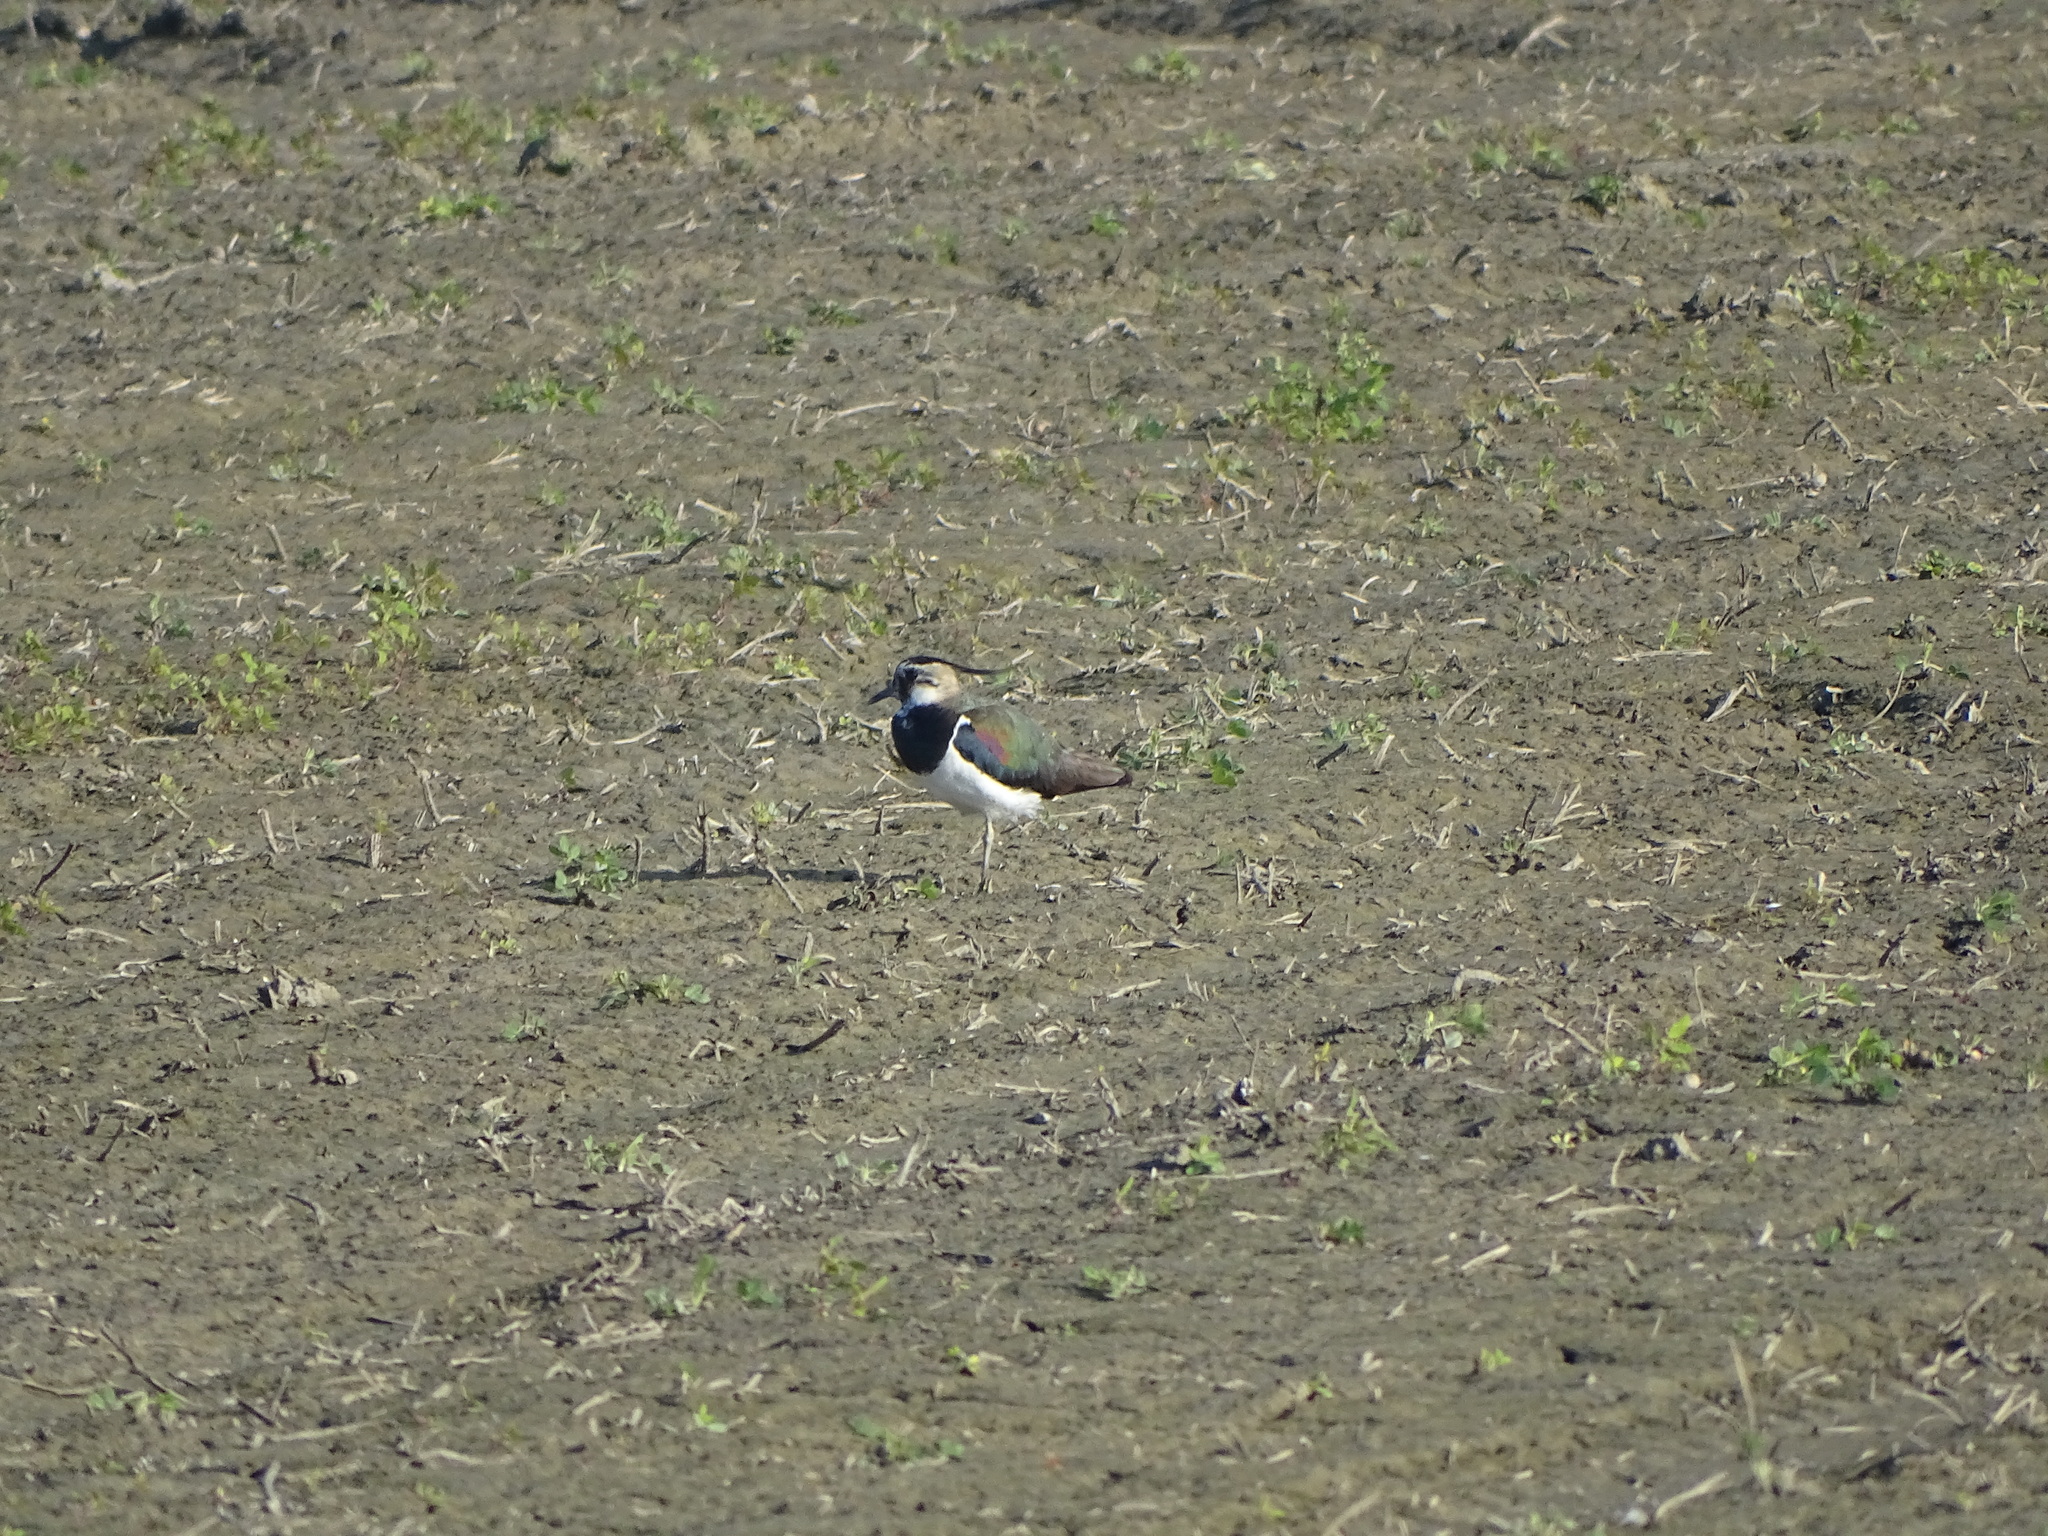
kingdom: Animalia
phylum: Chordata
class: Aves
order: Charadriiformes
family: Charadriidae
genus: Vanellus
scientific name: Vanellus vanellus
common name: Northern lapwing
